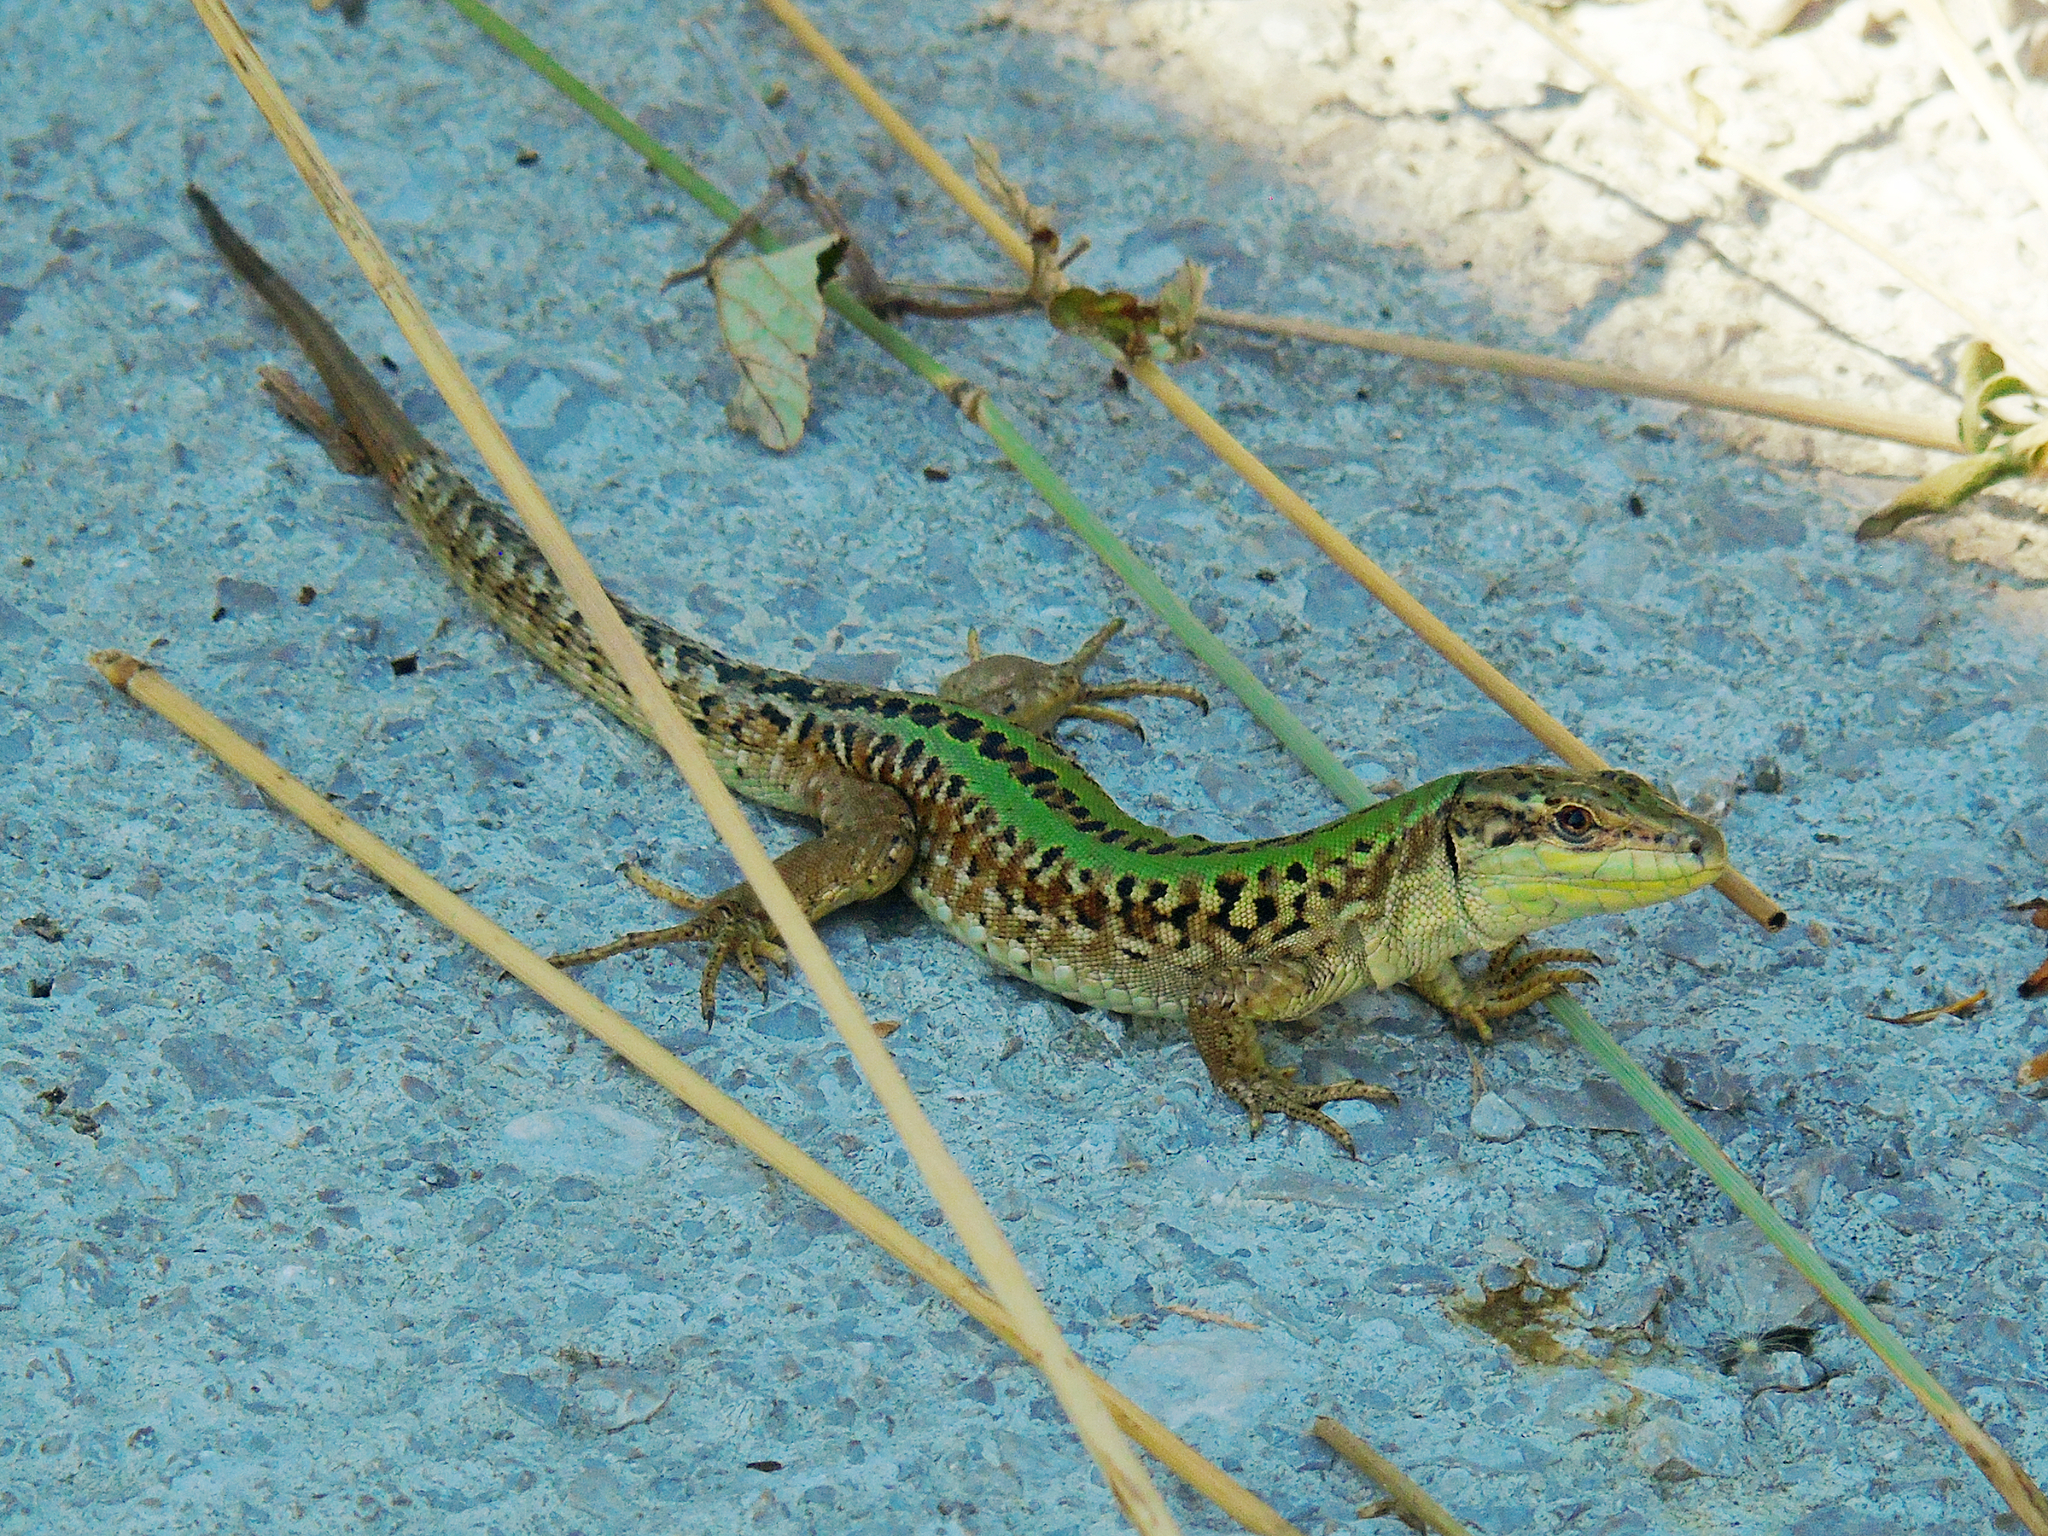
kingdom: Animalia
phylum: Chordata
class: Squamata
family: Lacertidae
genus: Podarcis
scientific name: Podarcis siculus
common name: Italian wall lizard
